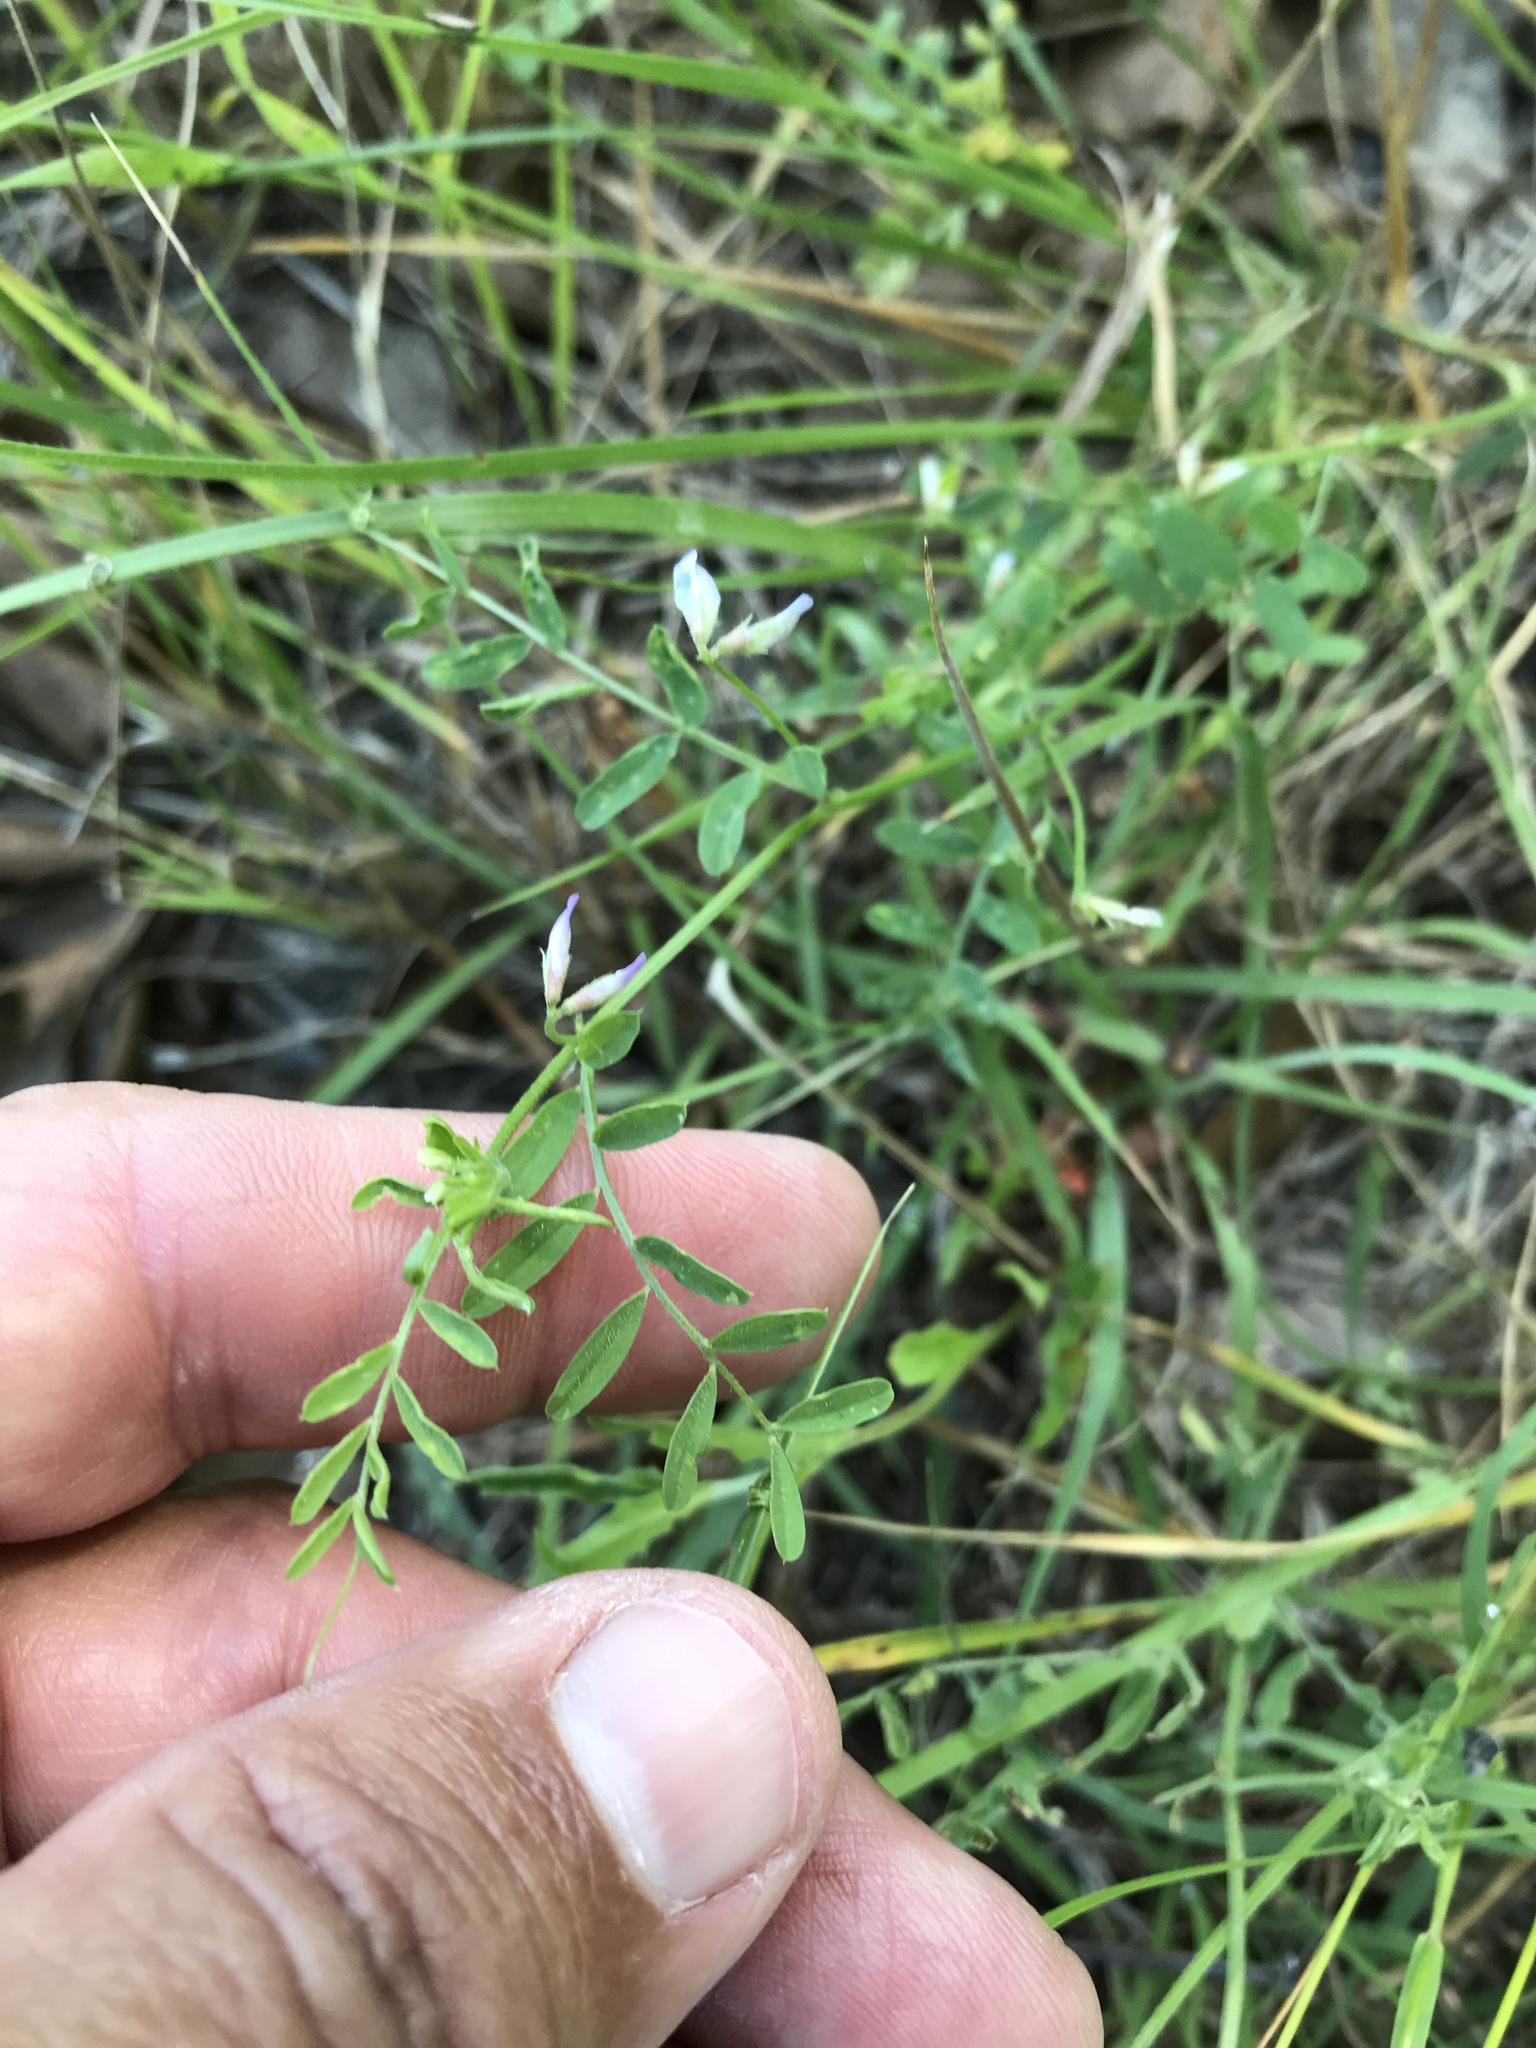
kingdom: Plantae
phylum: Tracheophyta
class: Magnoliopsida
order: Fabales
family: Fabaceae
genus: Vicia
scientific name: Vicia ludoviciana
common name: Louisiana vetch
